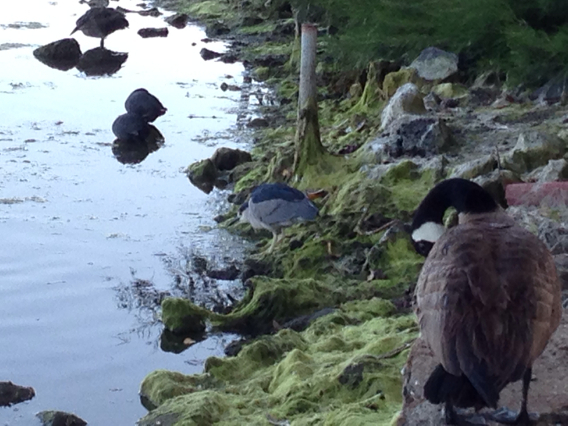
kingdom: Animalia
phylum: Chordata
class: Aves
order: Pelecaniformes
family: Ardeidae
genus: Nycticorax
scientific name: Nycticorax nycticorax
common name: Black-crowned night heron
